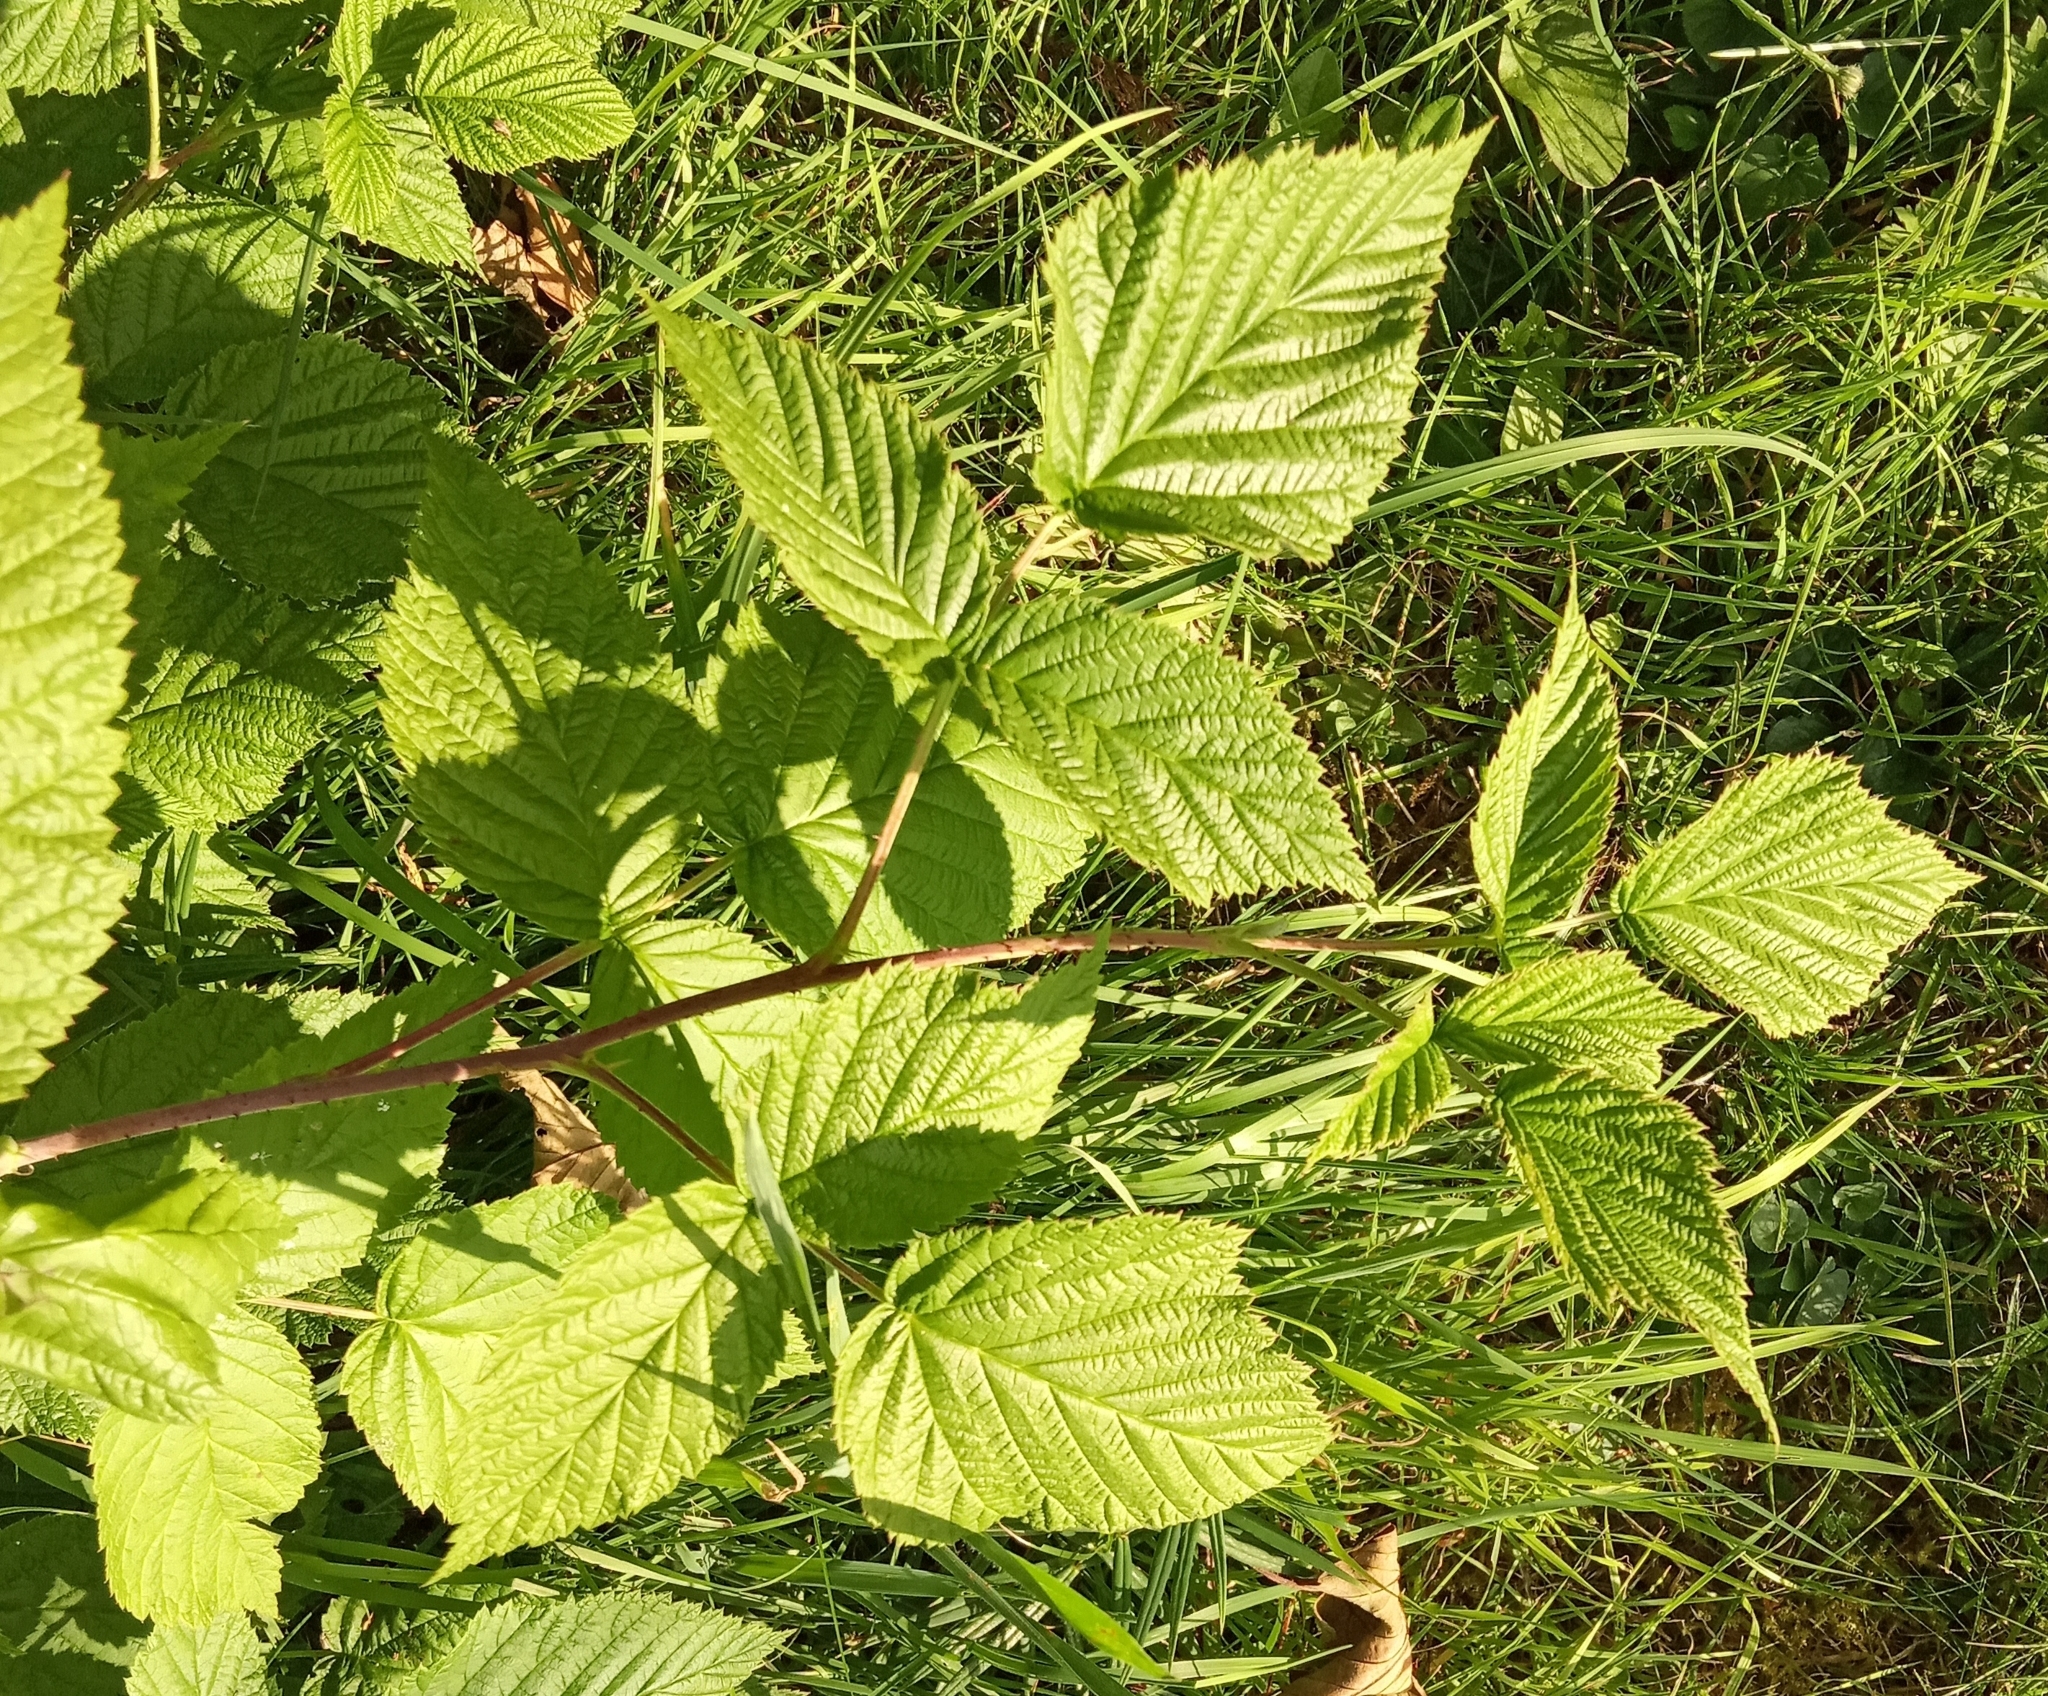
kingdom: Plantae
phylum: Tracheophyta
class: Magnoliopsida
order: Rosales
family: Rosaceae
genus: Rubus
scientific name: Rubus idaeus
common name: Raspberry
